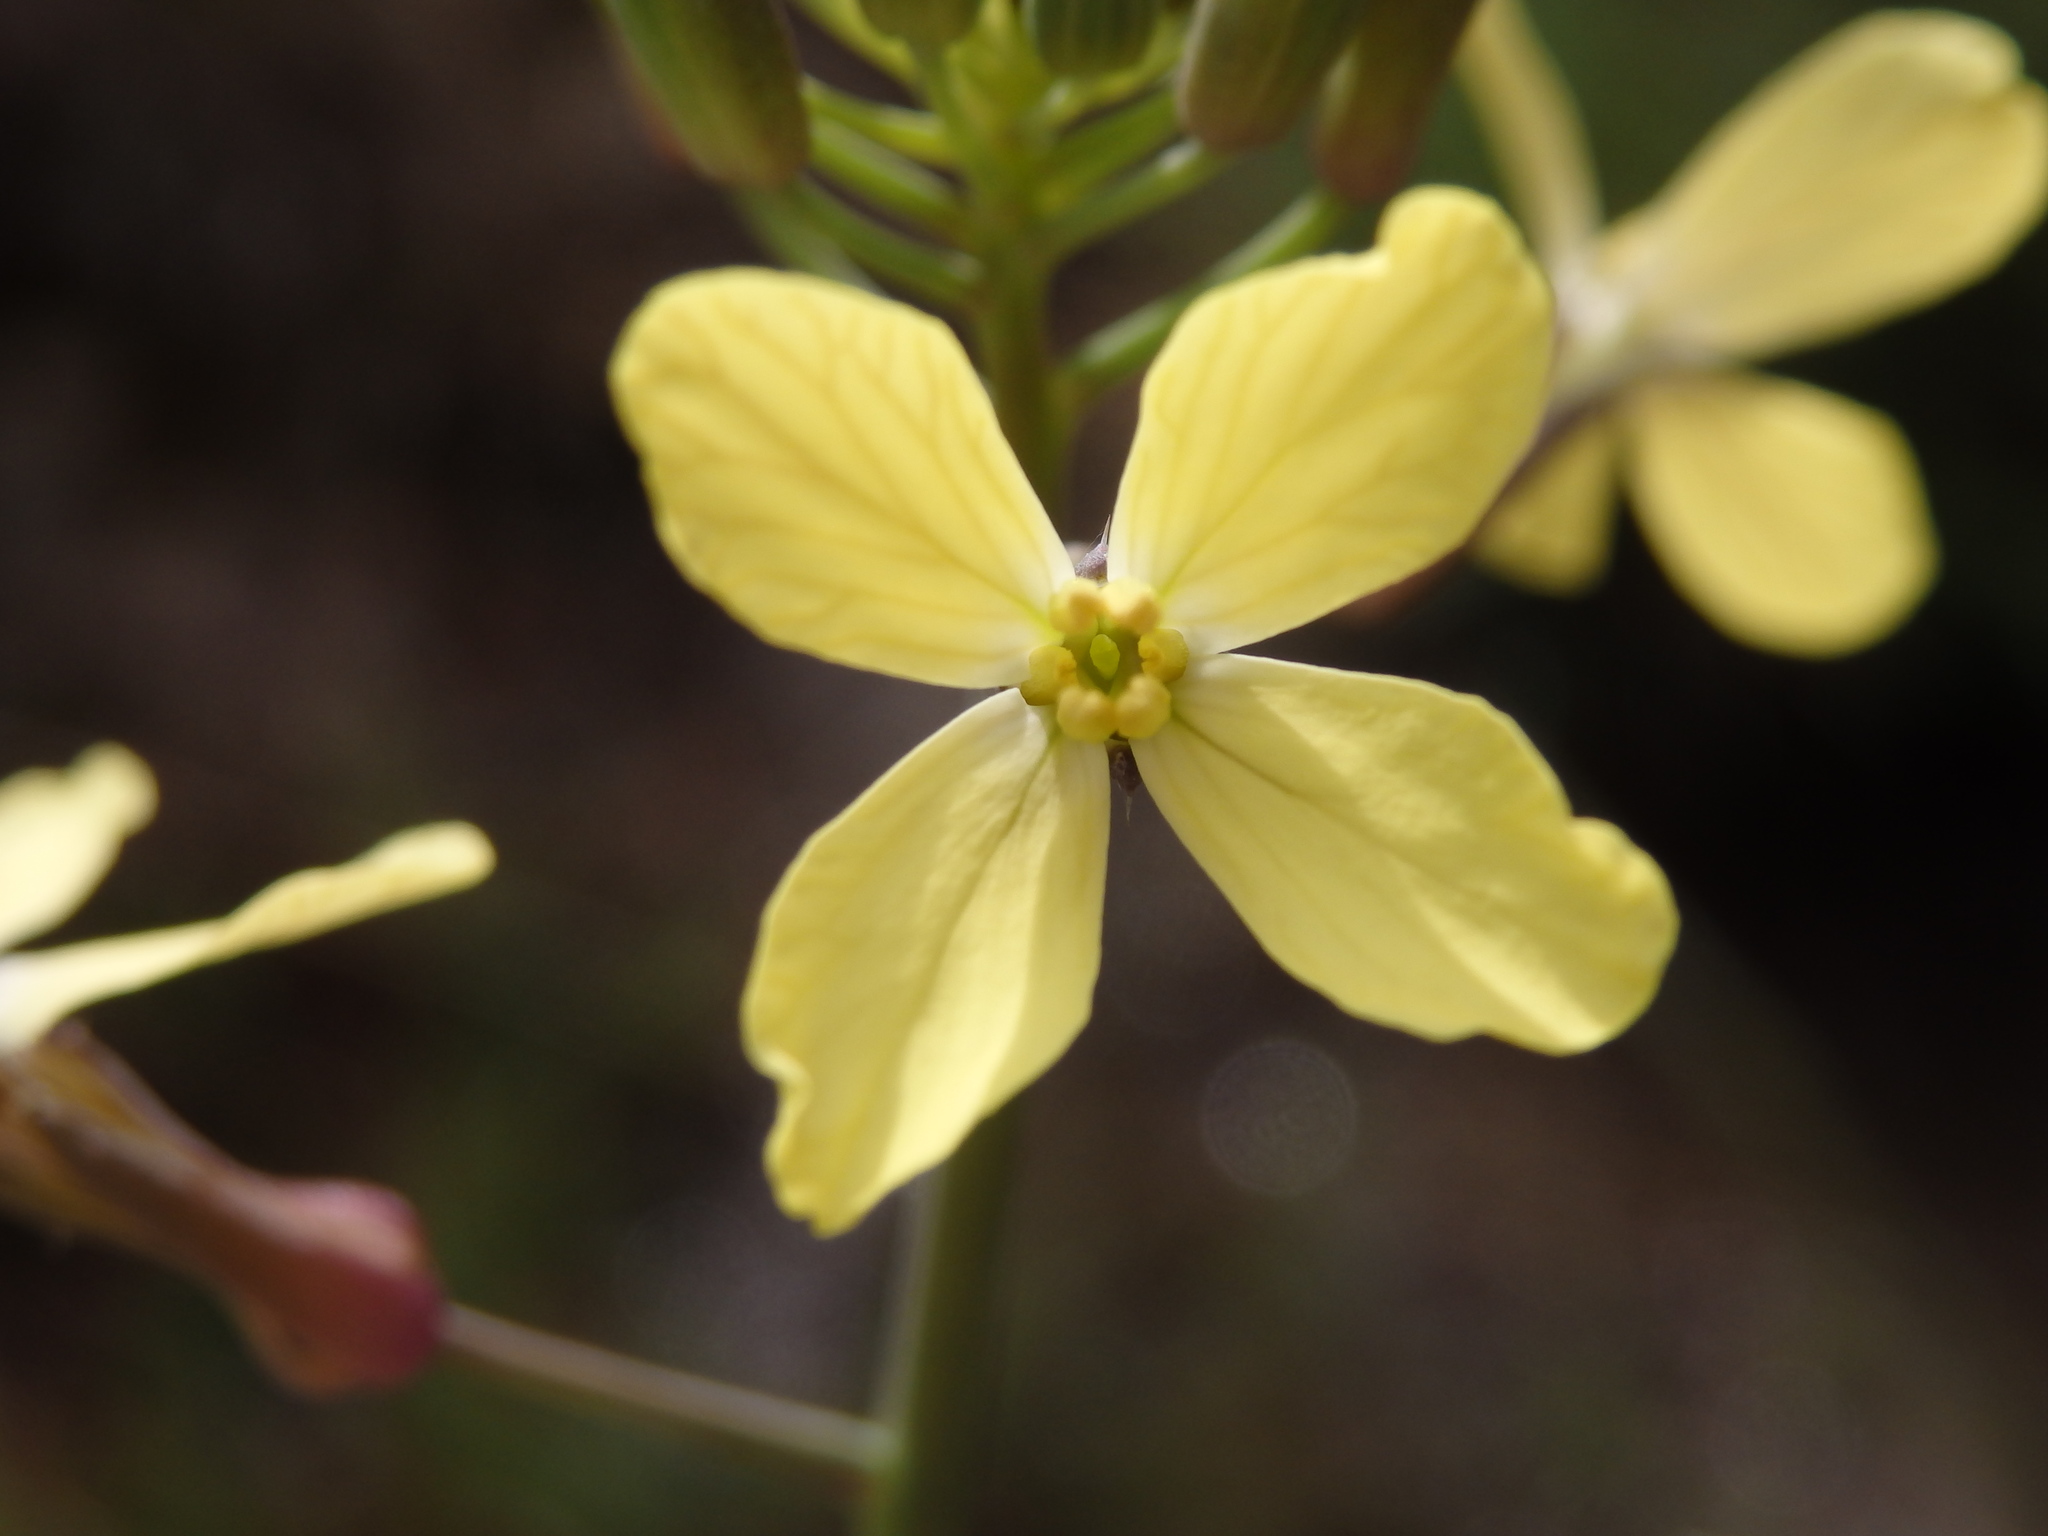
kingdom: Plantae
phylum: Tracheophyta
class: Magnoliopsida
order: Brassicales
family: Brassicaceae
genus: Coincya
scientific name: Coincya monensis
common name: Star-mustard
